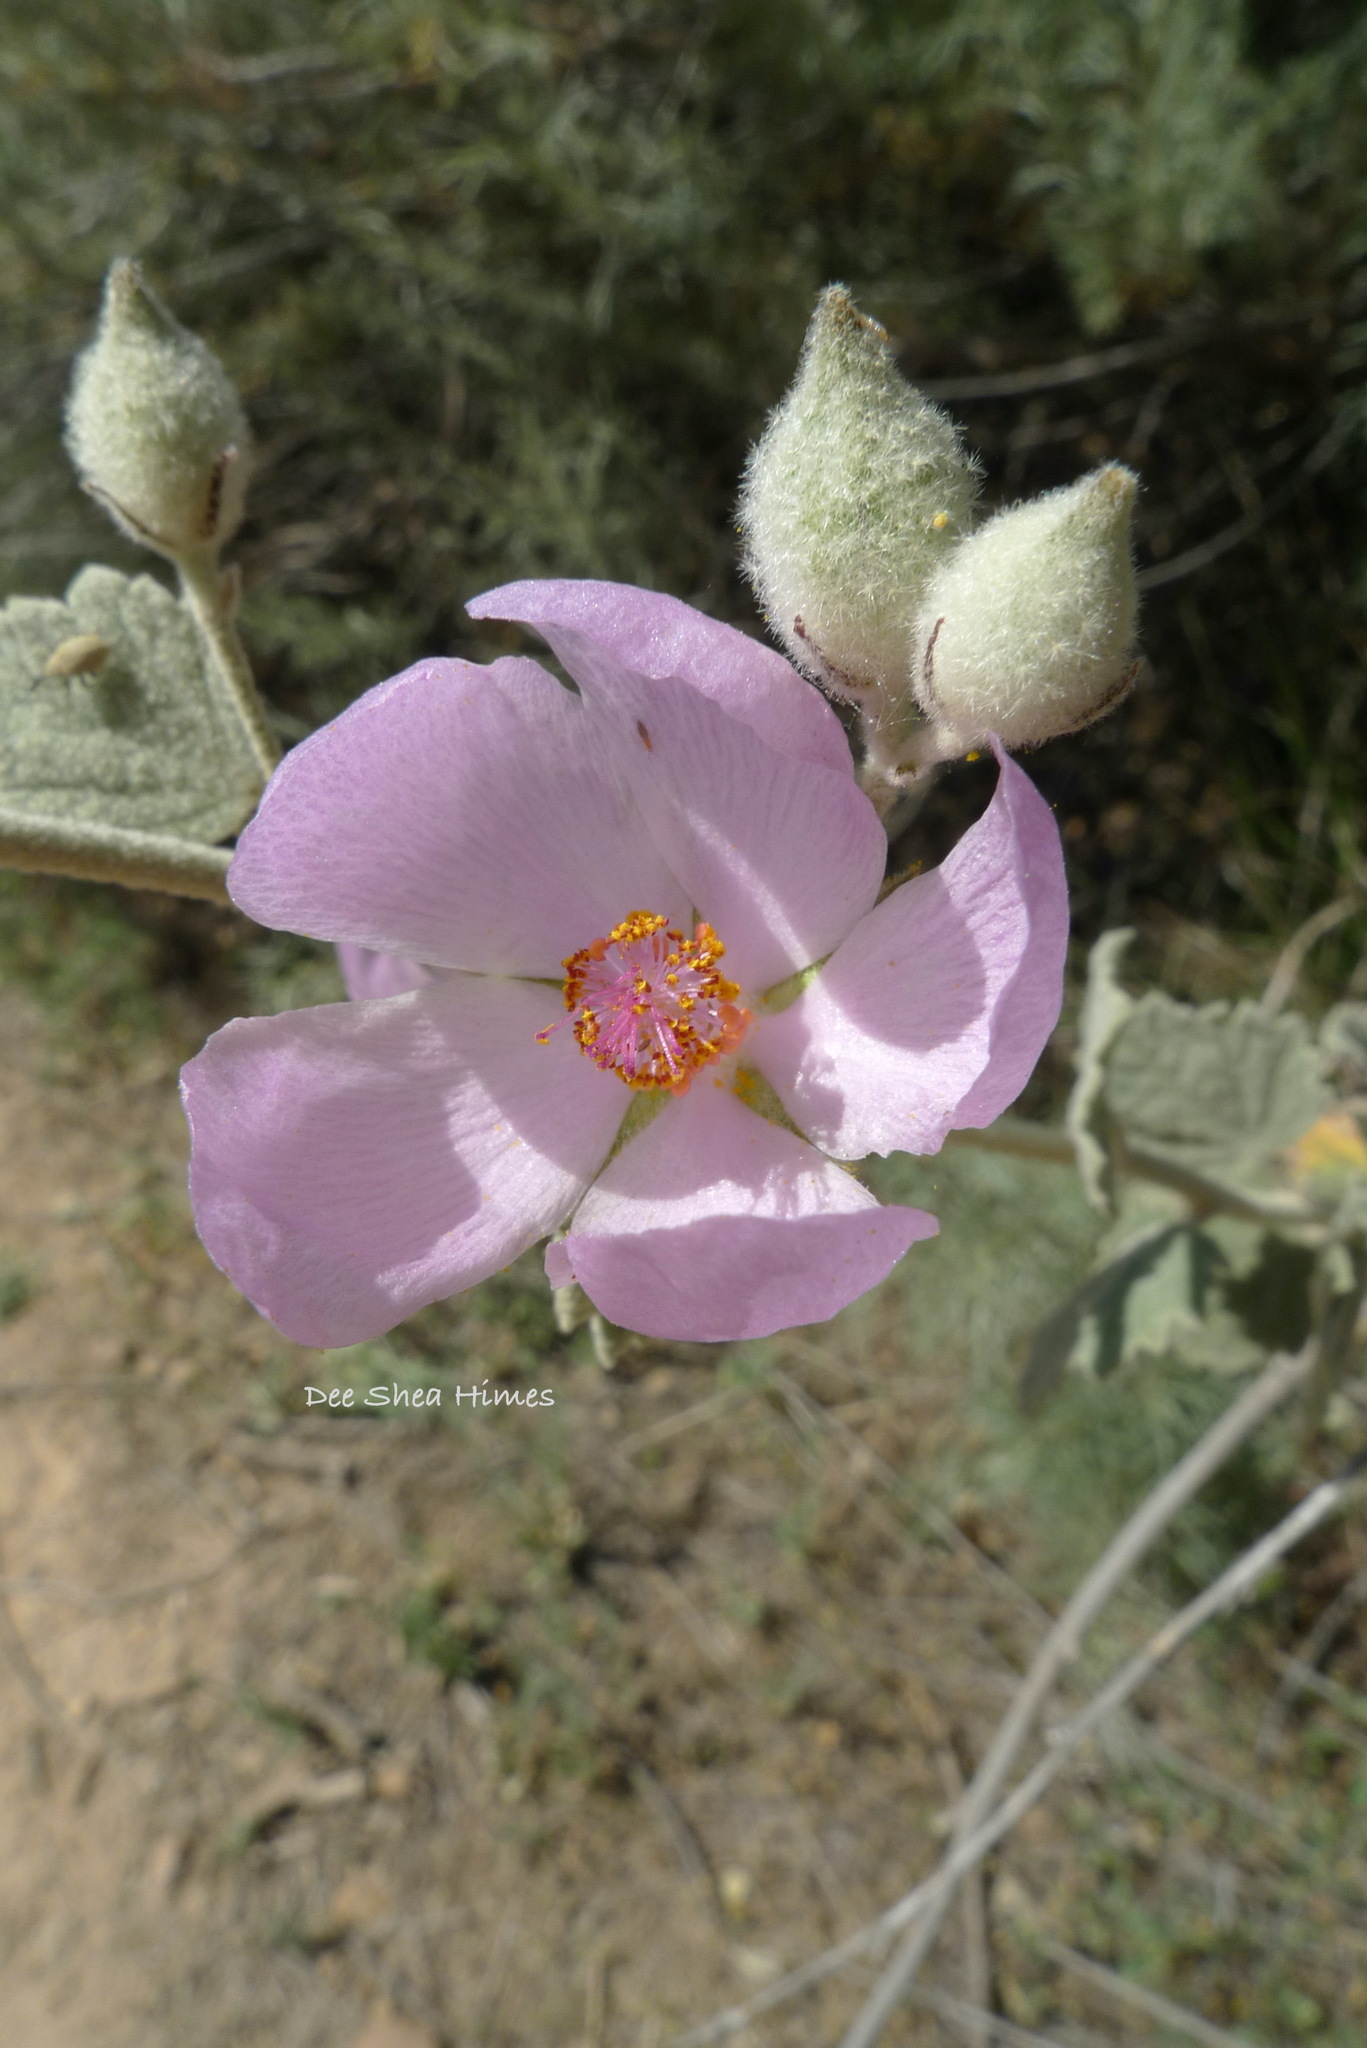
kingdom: Plantae
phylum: Tracheophyta
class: Magnoliopsida
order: Malvales
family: Malvaceae
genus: Malacothamnus
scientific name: Malacothamnus jonesii
